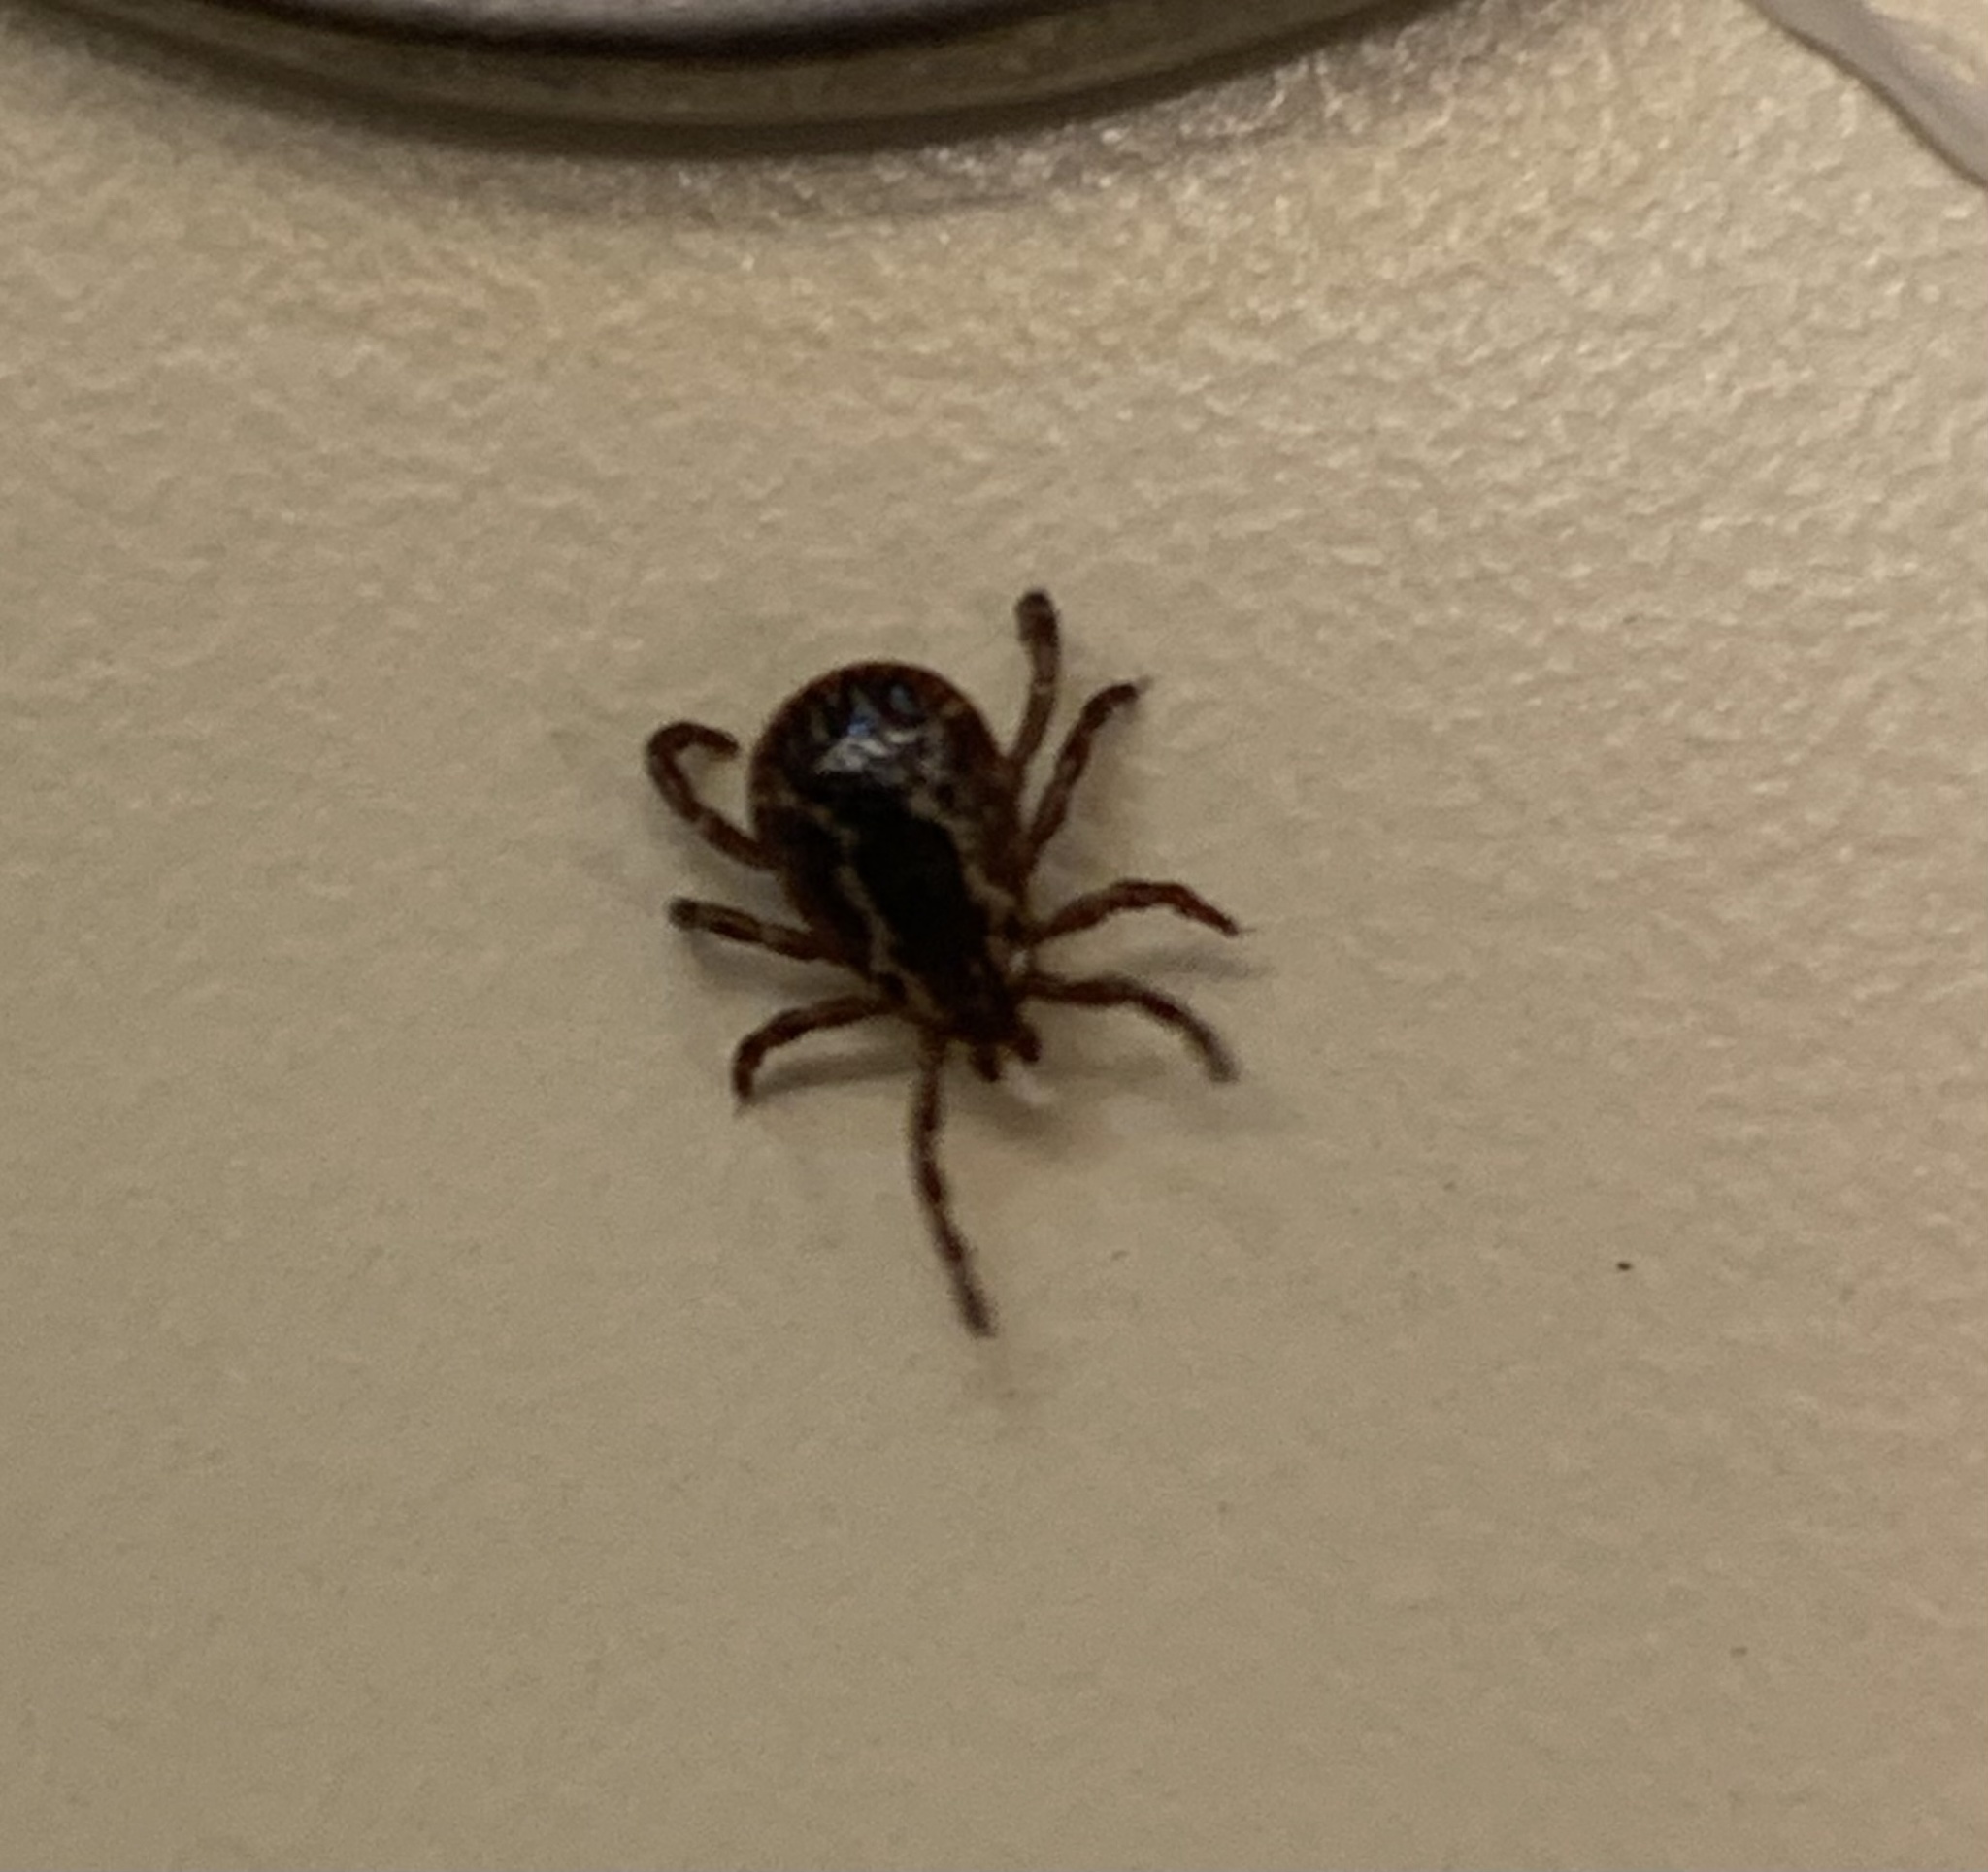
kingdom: Animalia
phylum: Arthropoda
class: Arachnida
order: Ixodida
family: Ixodidae
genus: Dermacentor
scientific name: Dermacentor variabilis
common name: American dog tick
